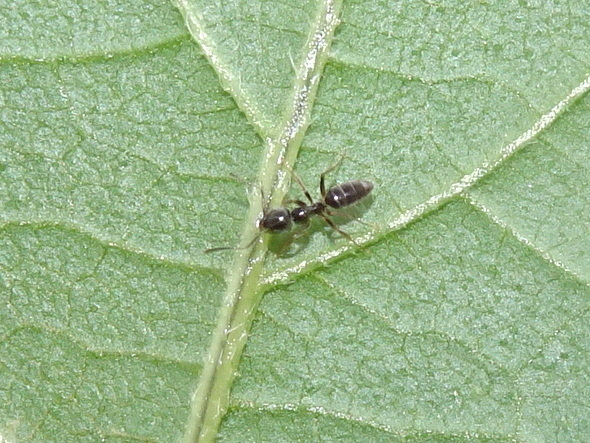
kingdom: Animalia
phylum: Arthropoda
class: Insecta
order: Hymenoptera
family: Formicidae
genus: Tapinoma
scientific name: Tapinoma sessile
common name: Odorous house ant
